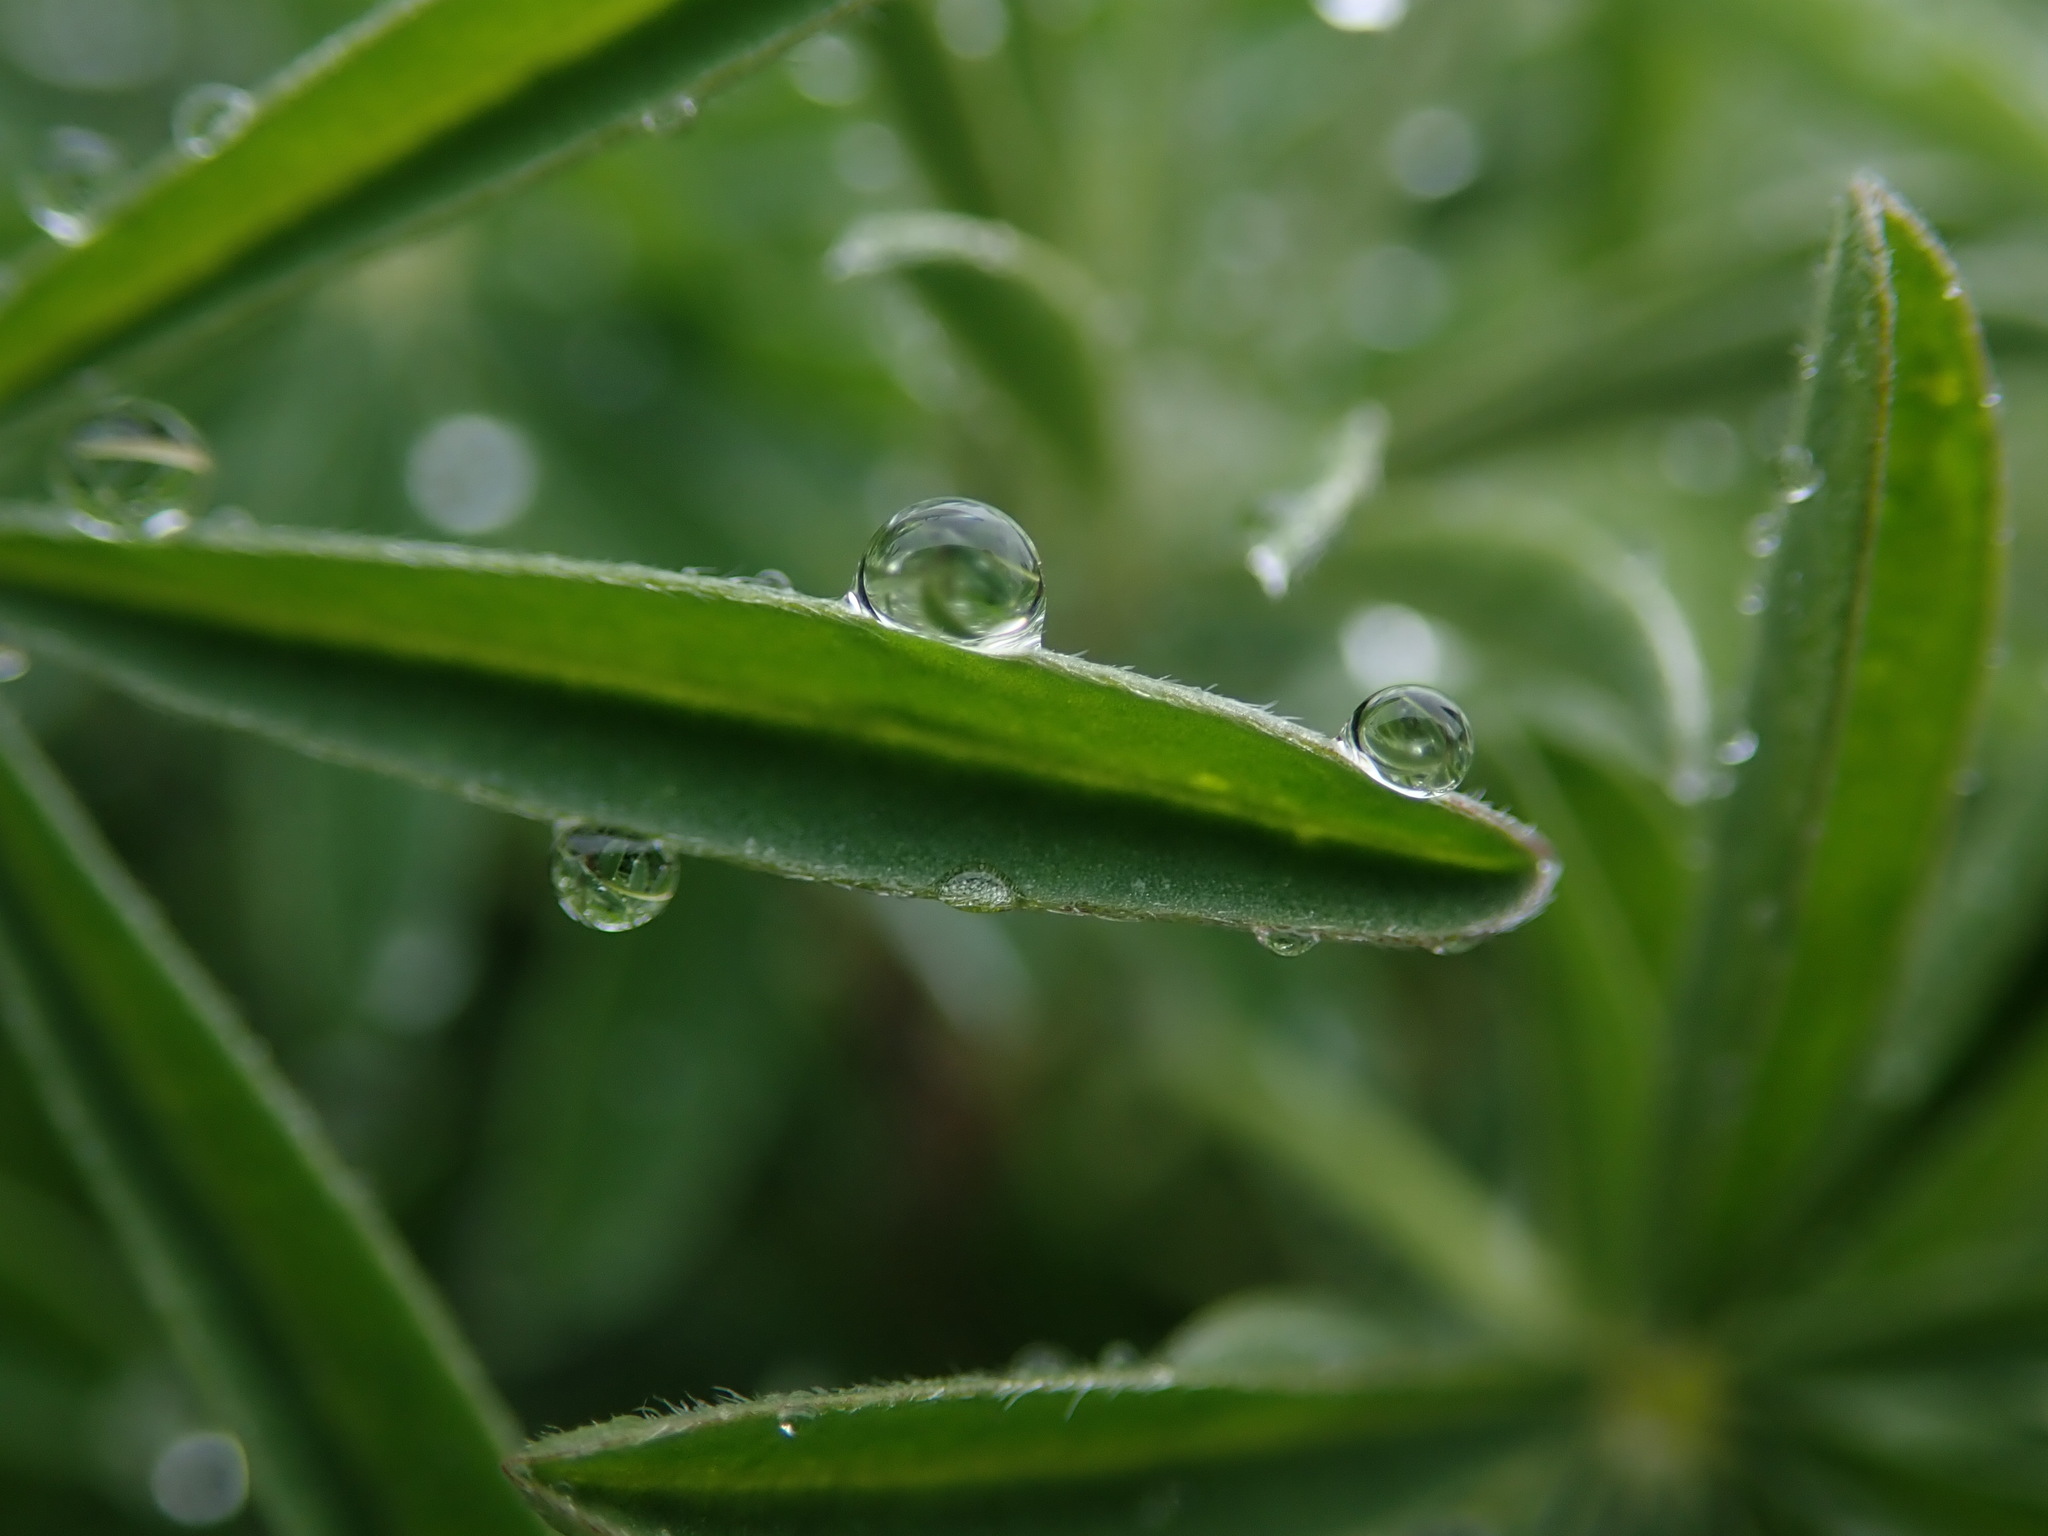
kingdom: Plantae
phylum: Tracheophyta
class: Magnoliopsida
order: Fabales
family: Fabaceae
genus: Lupinus
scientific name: Lupinus arboreus
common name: Yellow bush lupine
